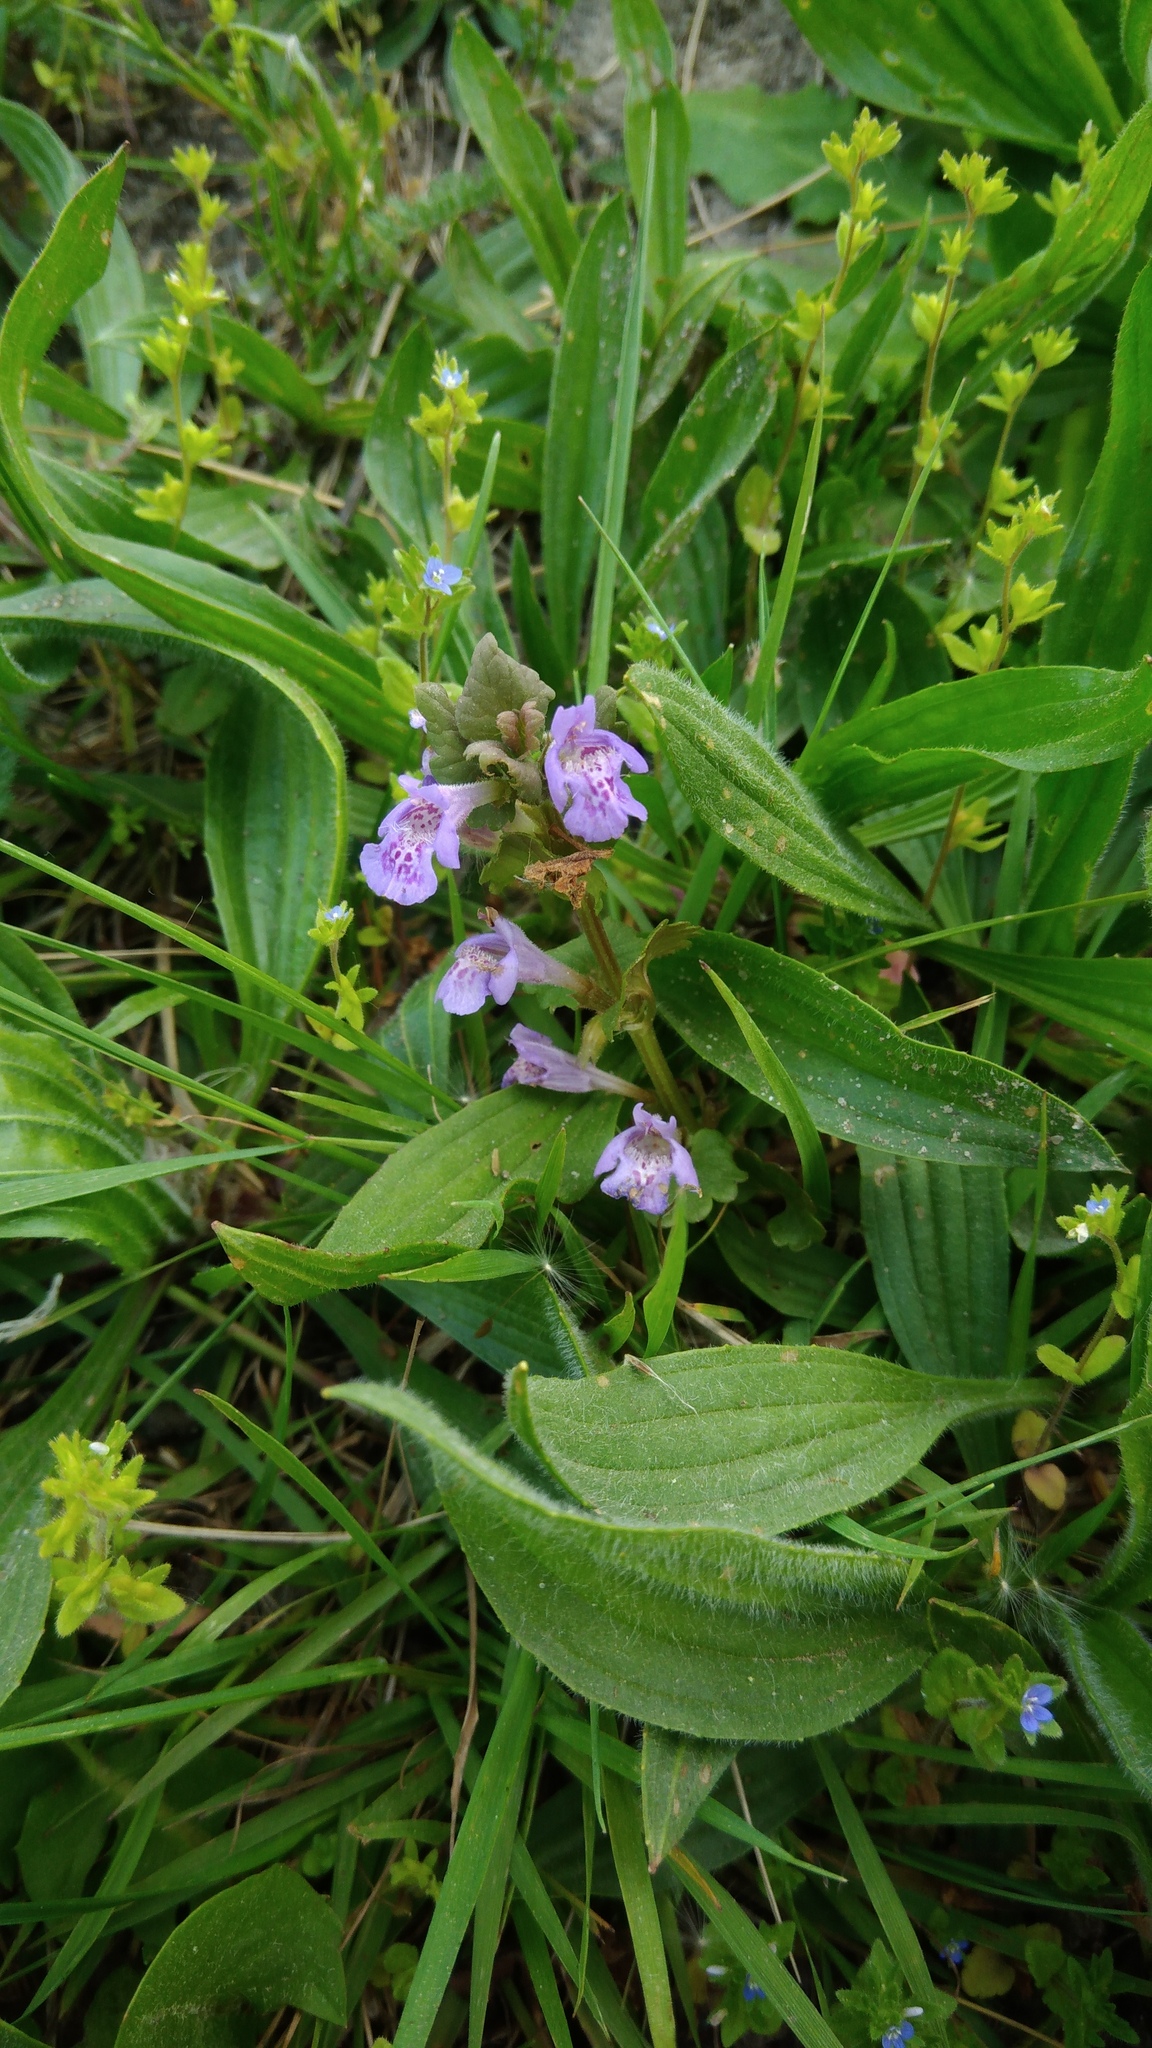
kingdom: Plantae
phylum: Tracheophyta
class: Magnoliopsida
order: Lamiales
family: Lamiaceae
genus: Glechoma
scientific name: Glechoma hederacea
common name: Ground ivy
